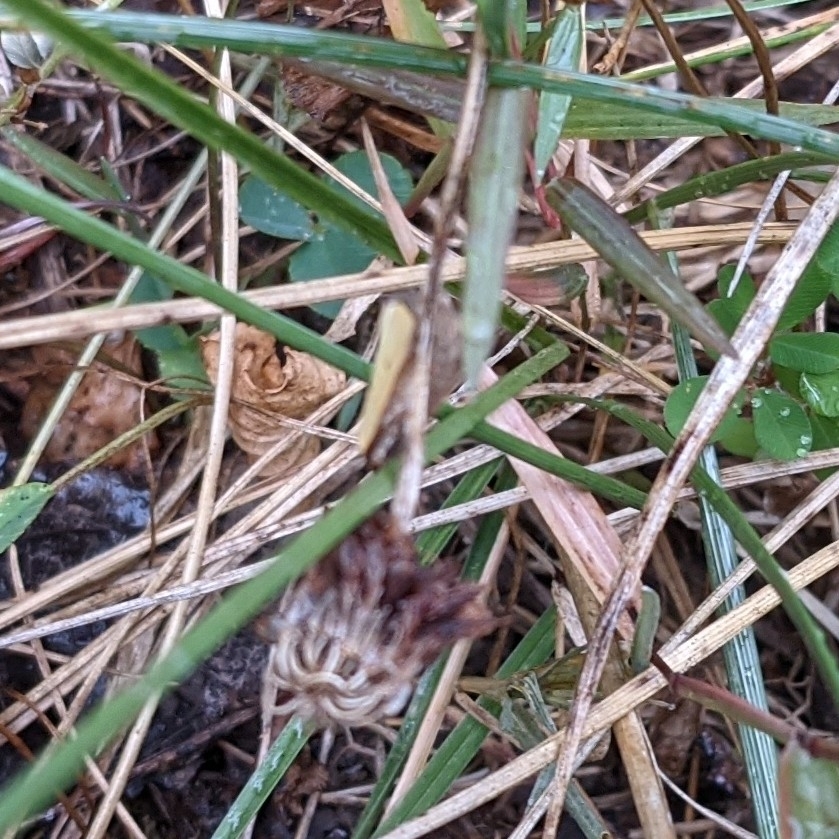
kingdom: Animalia
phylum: Arthropoda
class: Insecta
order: Lepidoptera
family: Noctuidae
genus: Marimatha
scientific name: Marimatha nigrofimbria
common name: Black-bordered lemon moth
